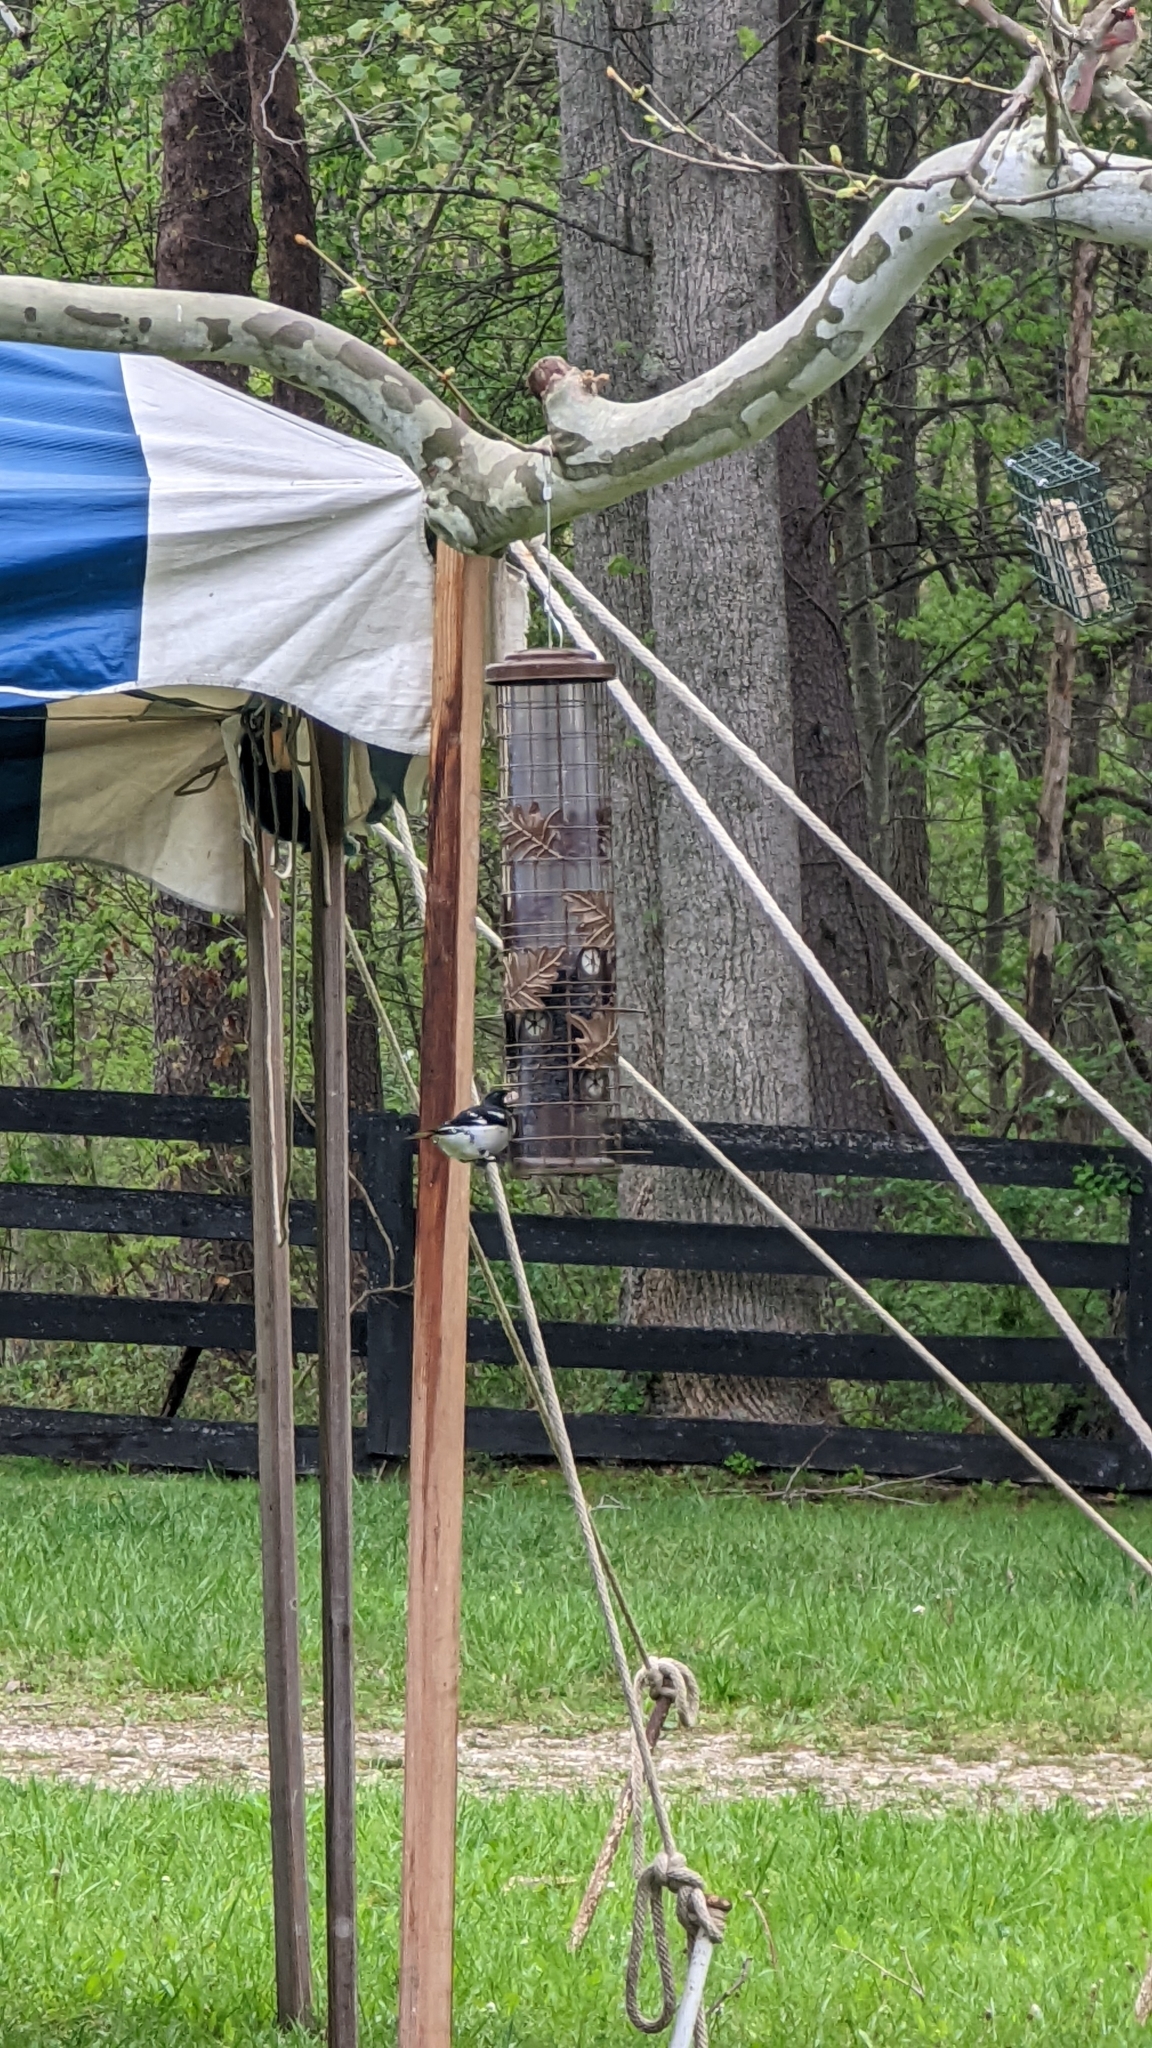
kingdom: Animalia
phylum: Chordata
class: Aves
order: Passeriformes
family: Cardinalidae
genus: Pheucticus
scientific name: Pheucticus ludovicianus
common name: Rose-breasted grosbeak
